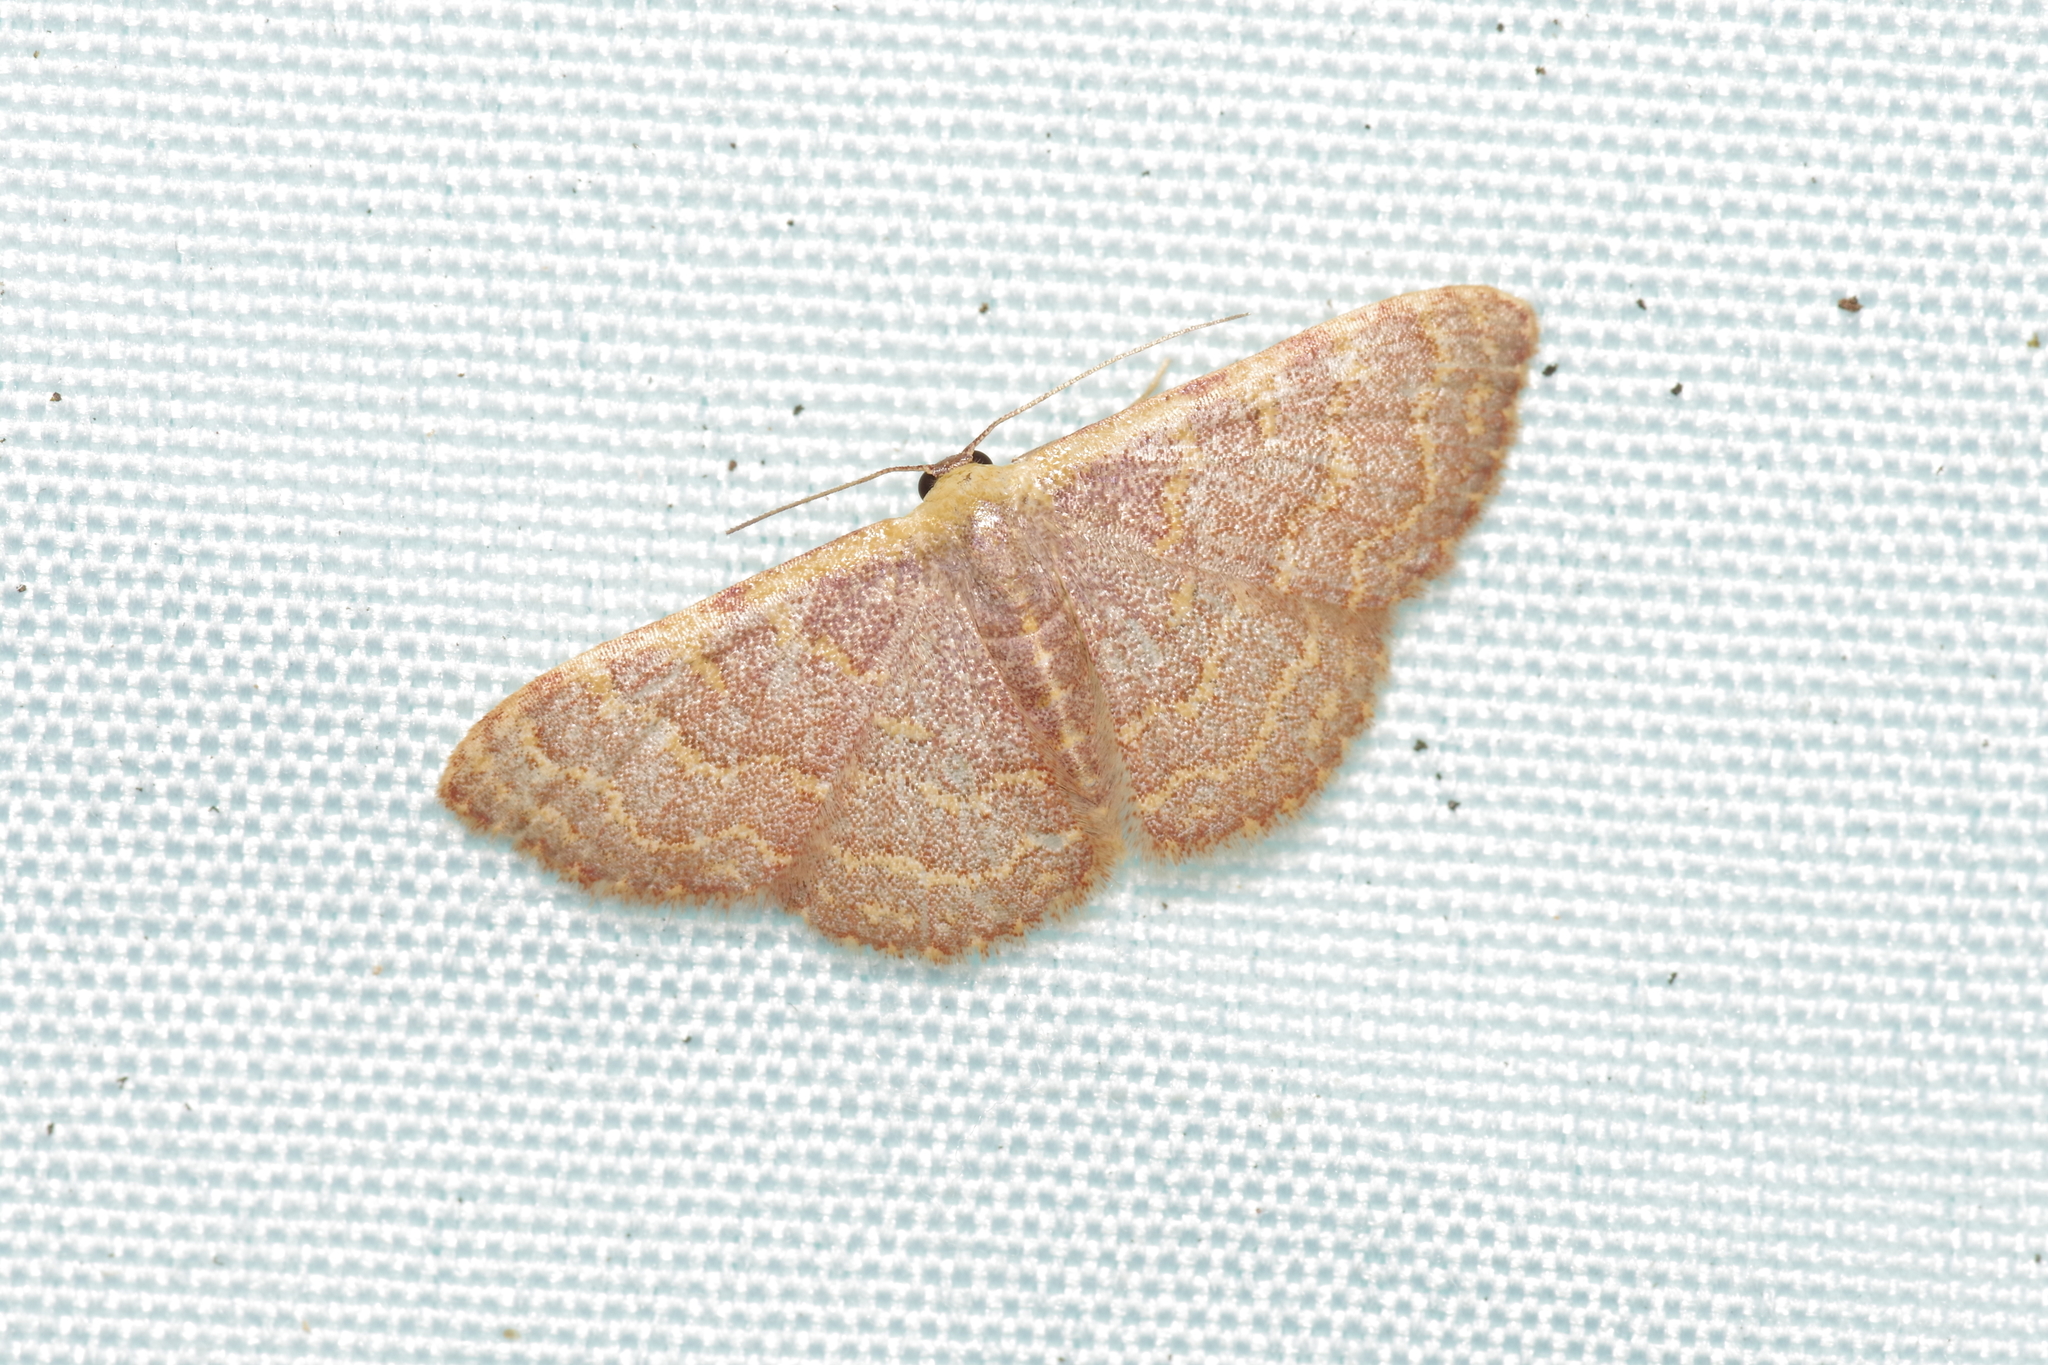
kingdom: Animalia
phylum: Arthropoda
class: Insecta
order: Lepidoptera
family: Geometridae
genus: Leptostales
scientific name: Leptostales pannaria
